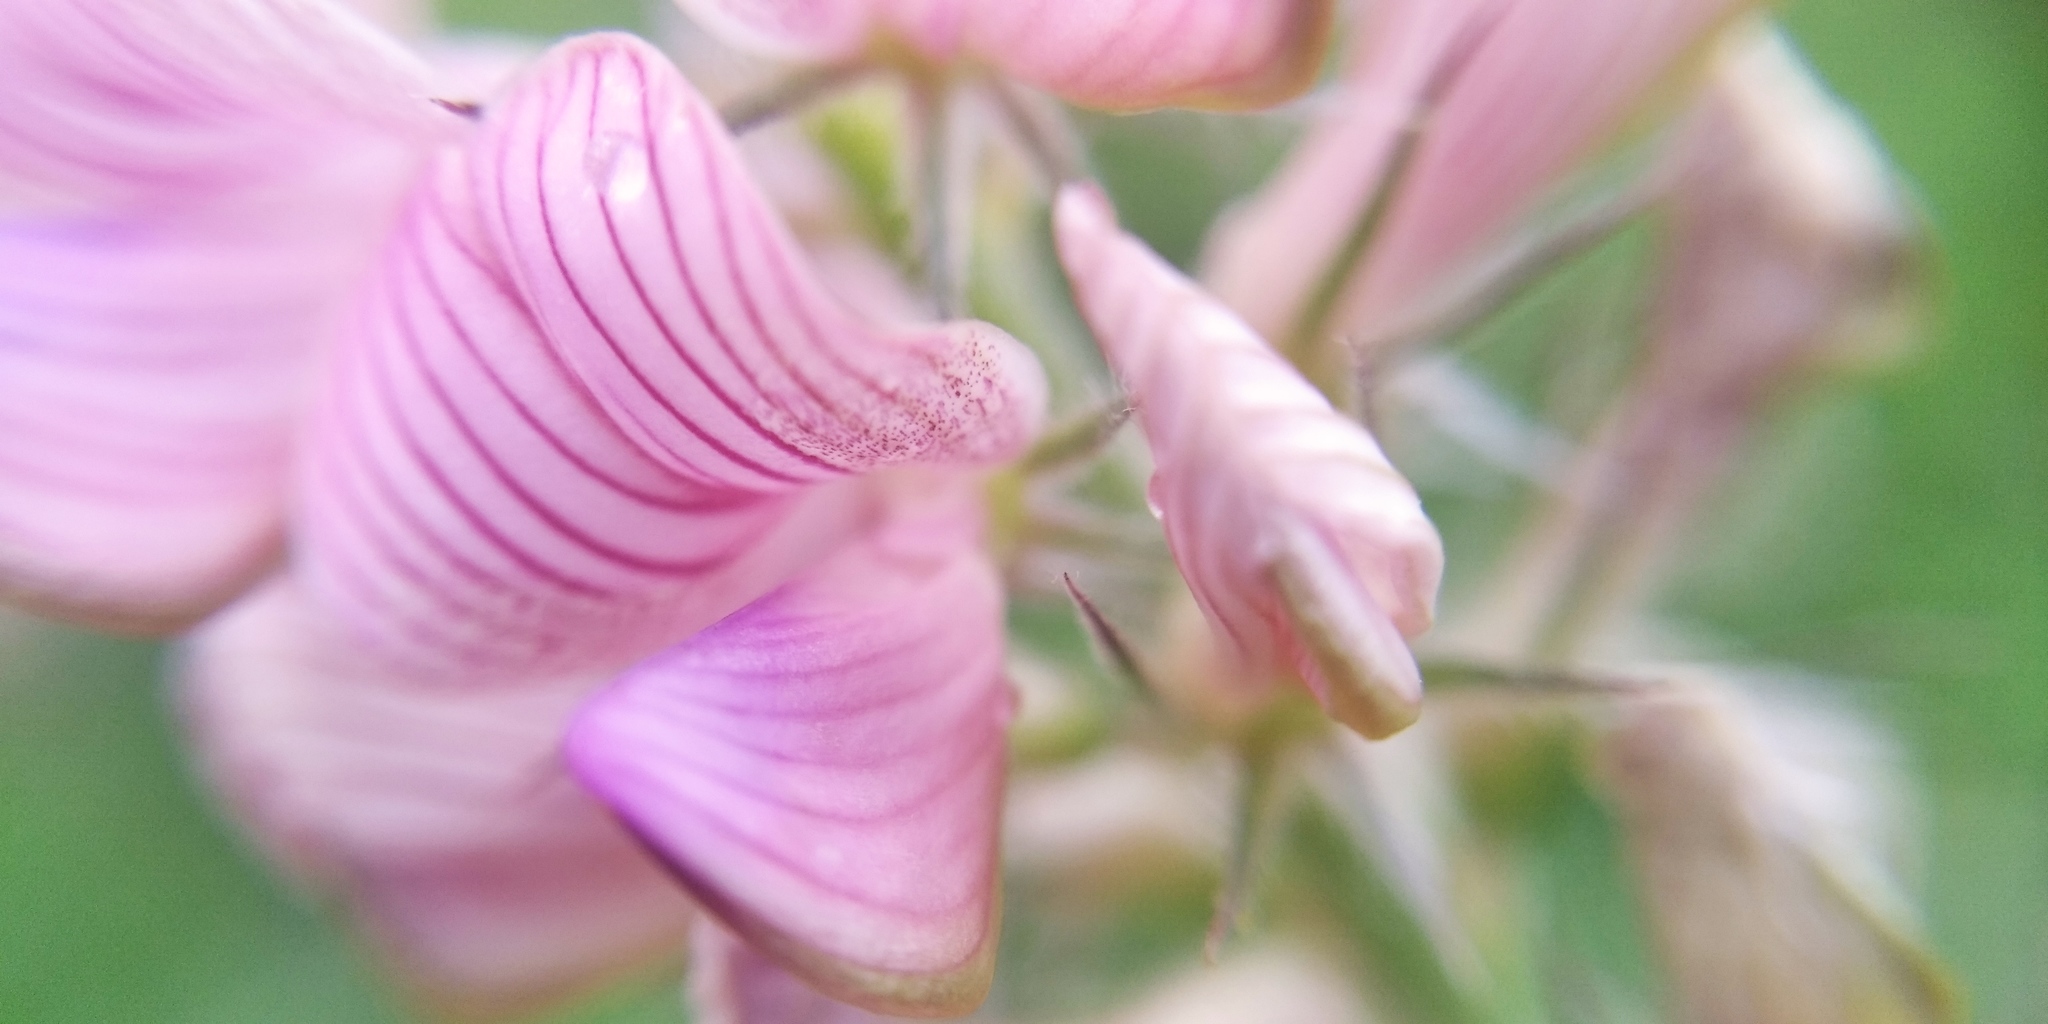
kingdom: Plantae
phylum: Tracheophyta
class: Magnoliopsida
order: Fabales
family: Fabaceae
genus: Onobrychis
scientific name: Onobrychis arenaria
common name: Sand esparcet
